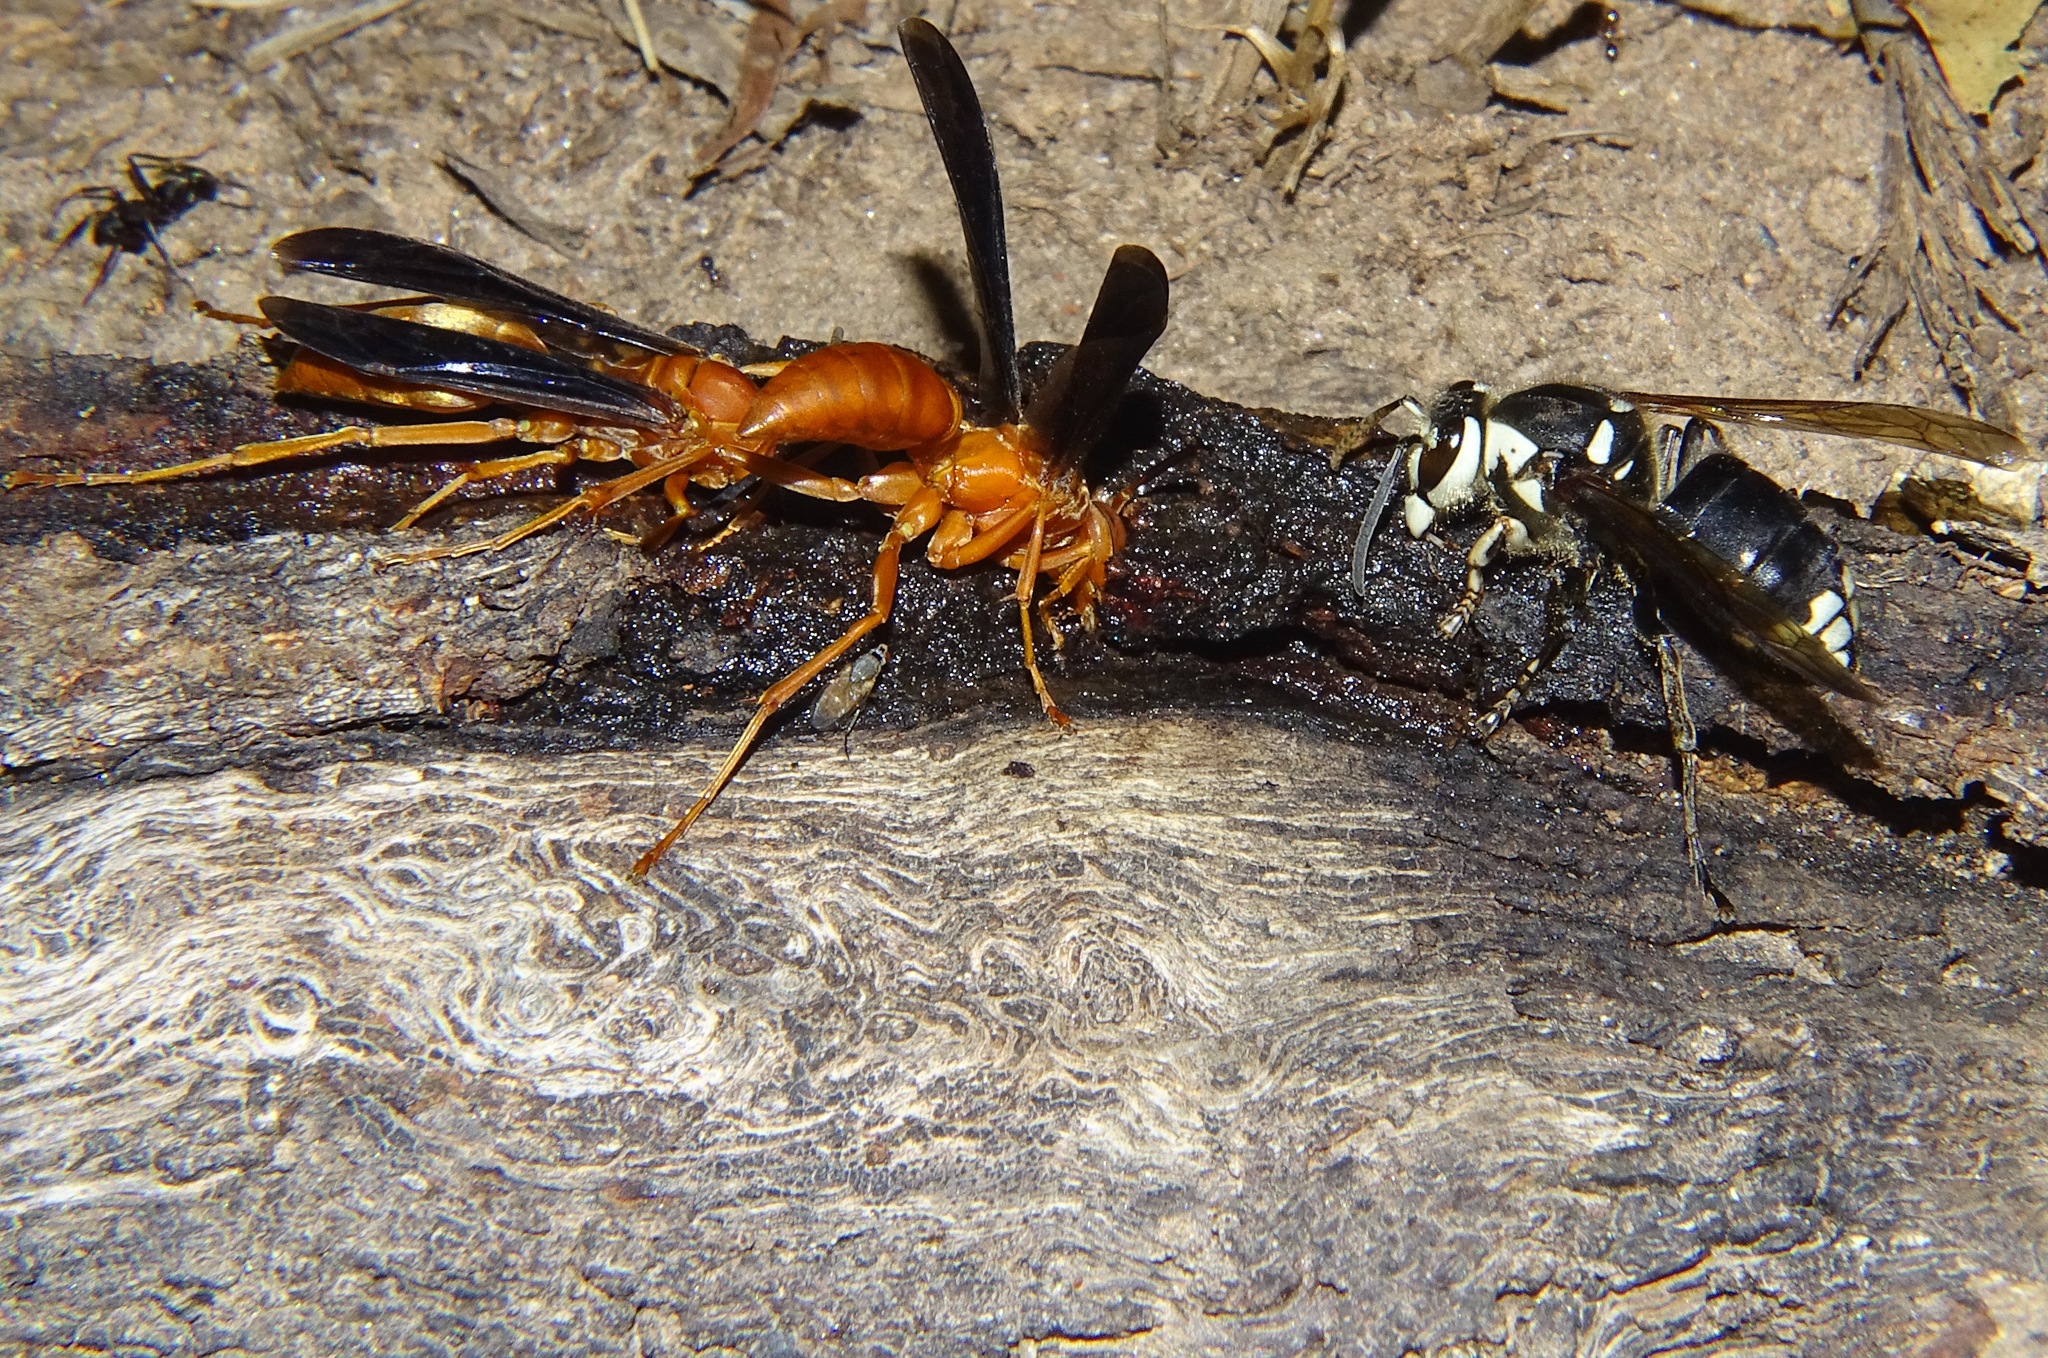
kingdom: Animalia
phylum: Arthropoda
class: Insecta
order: Hymenoptera
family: Vespidae
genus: Fuscopolistes
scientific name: Fuscopolistes
